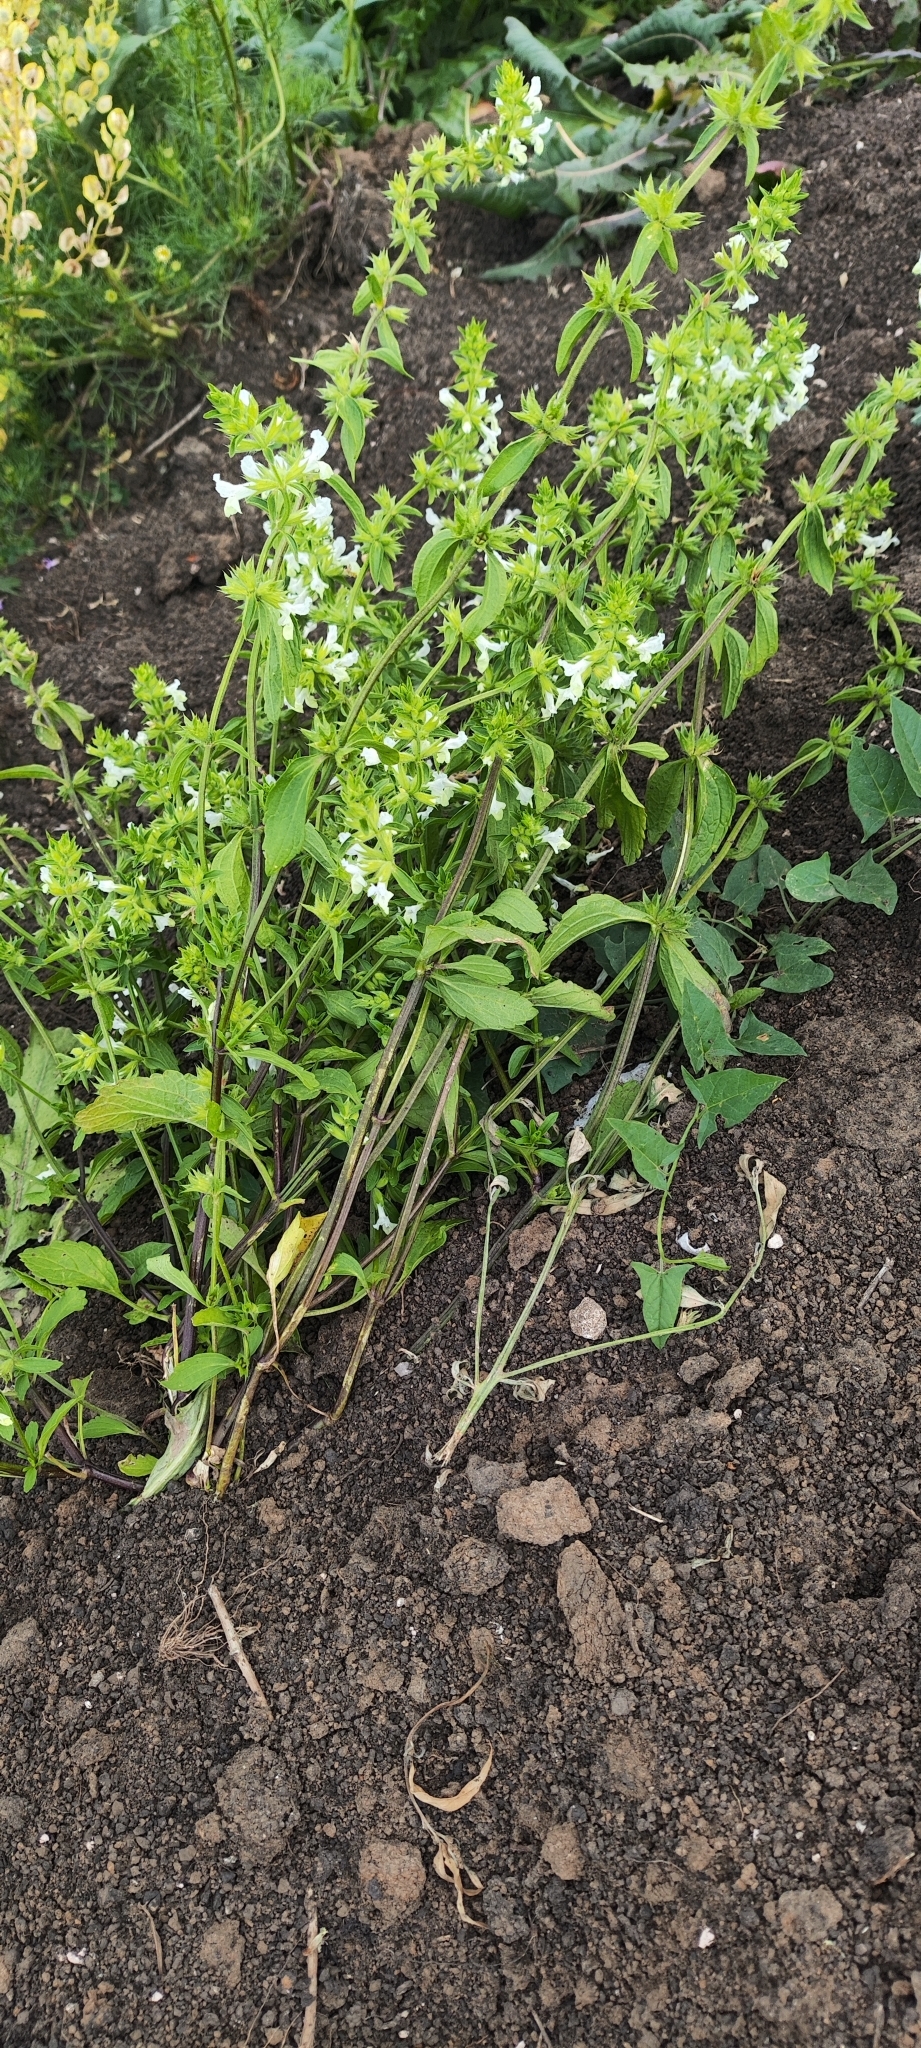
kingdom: Plantae
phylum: Tracheophyta
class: Magnoliopsida
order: Lamiales
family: Lamiaceae
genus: Stachys
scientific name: Stachys annua
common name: Annual yellow-woundwort
